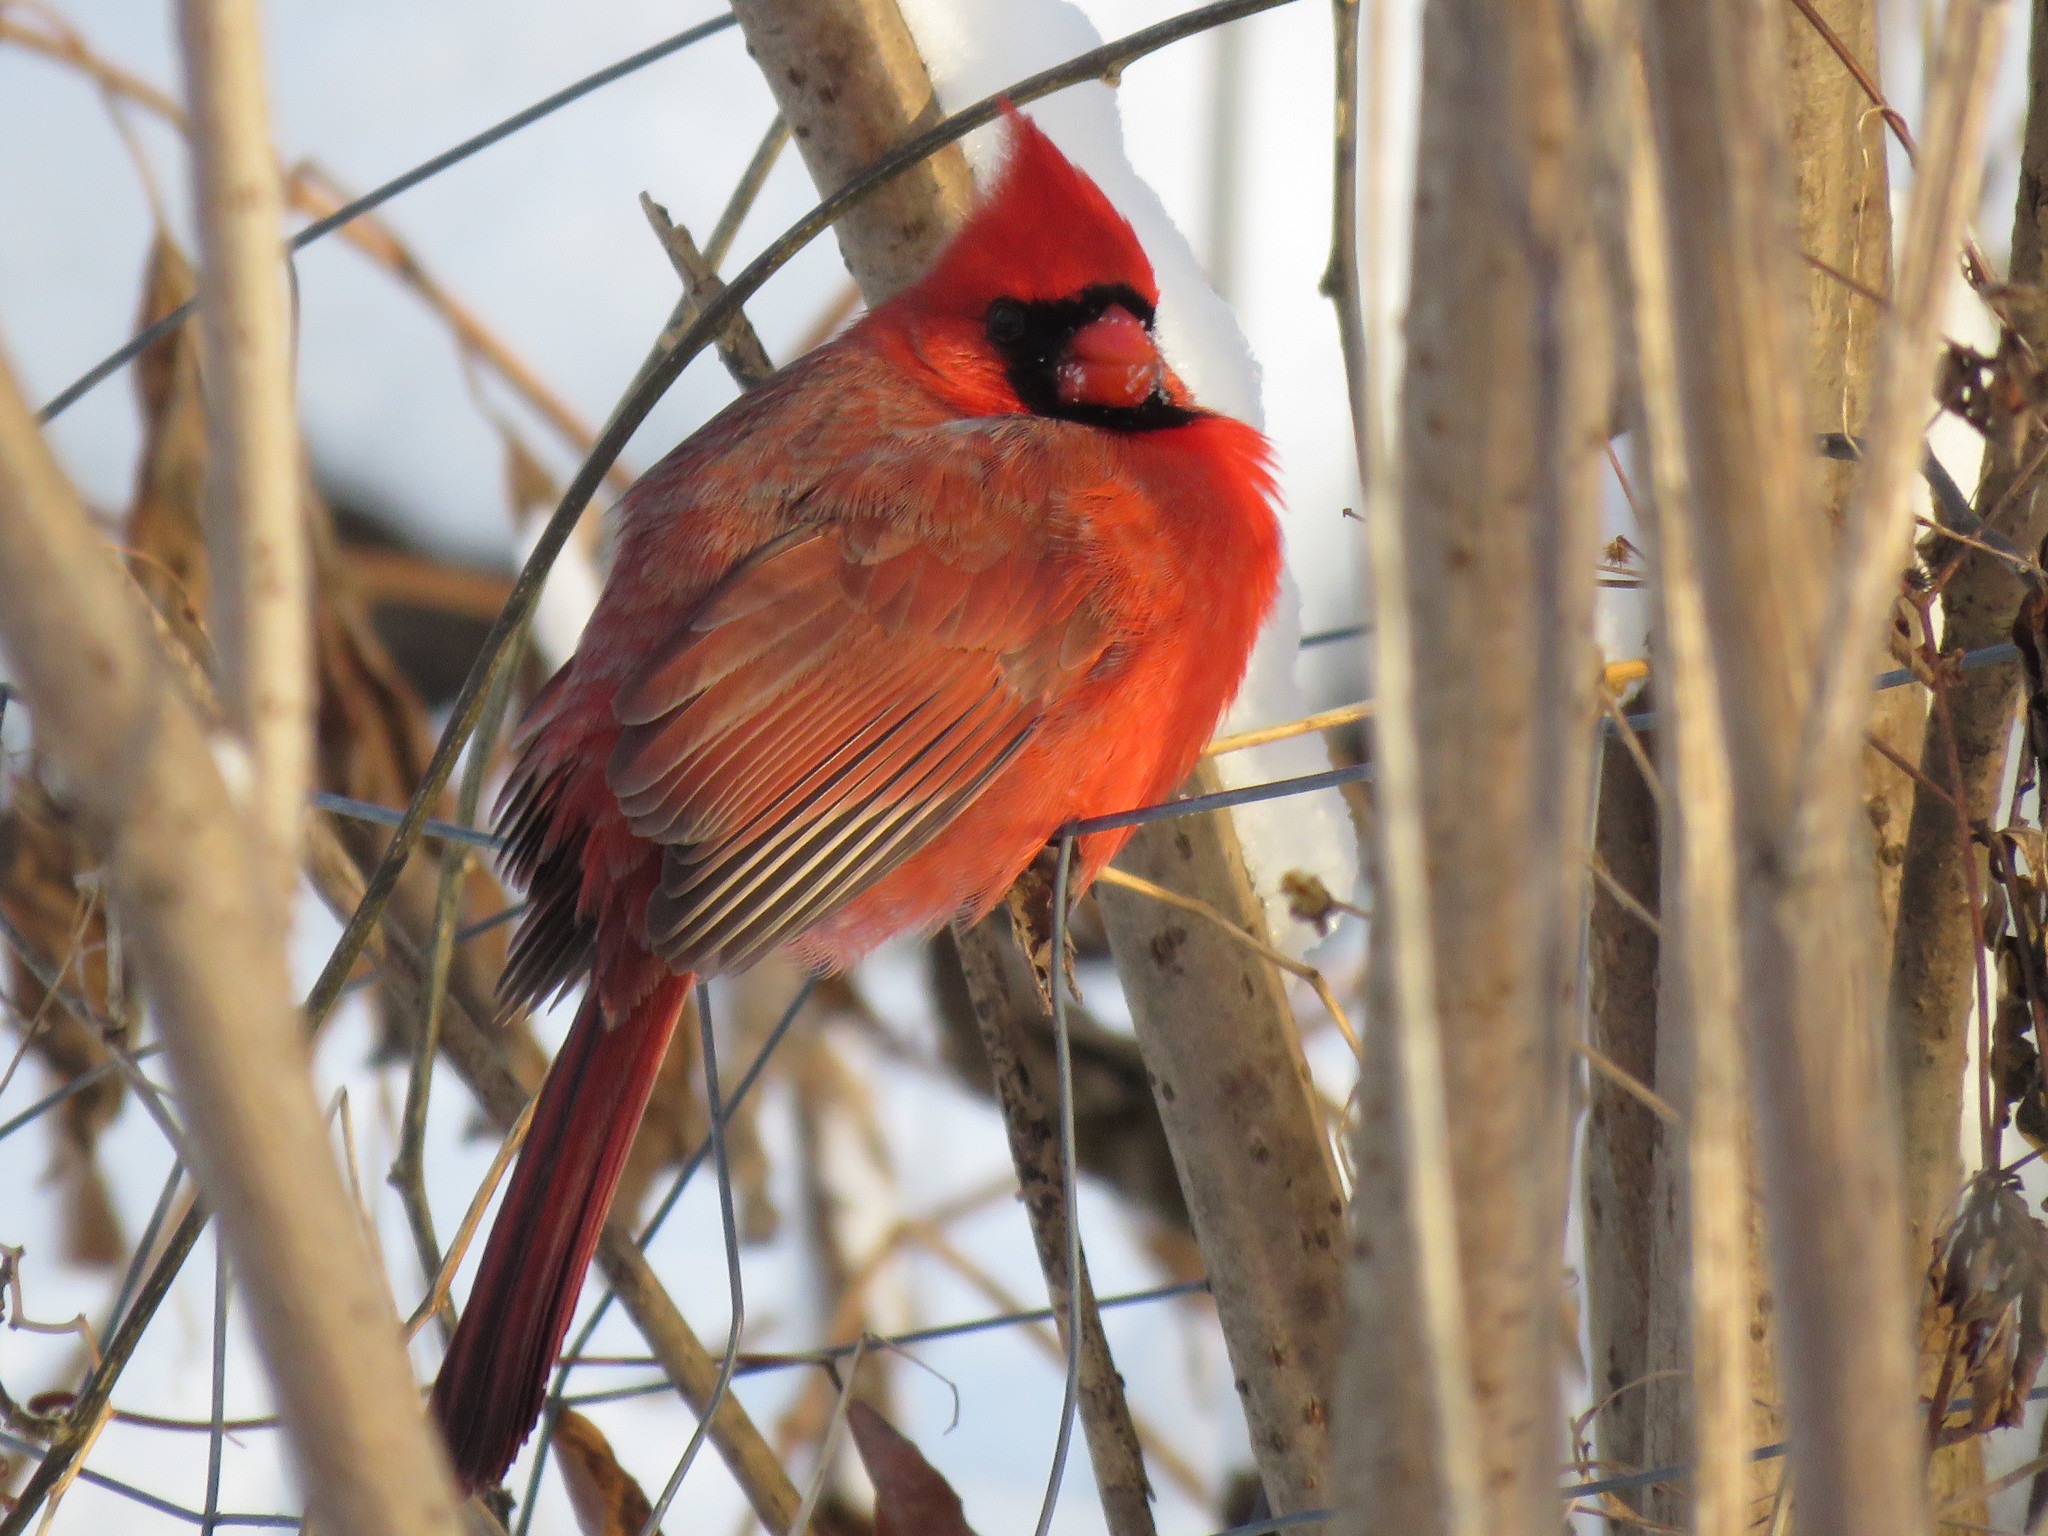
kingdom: Animalia
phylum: Chordata
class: Aves
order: Passeriformes
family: Cardinalidae
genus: Cardinalis
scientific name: Cardinalis cardinalis
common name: Northern cardinal
